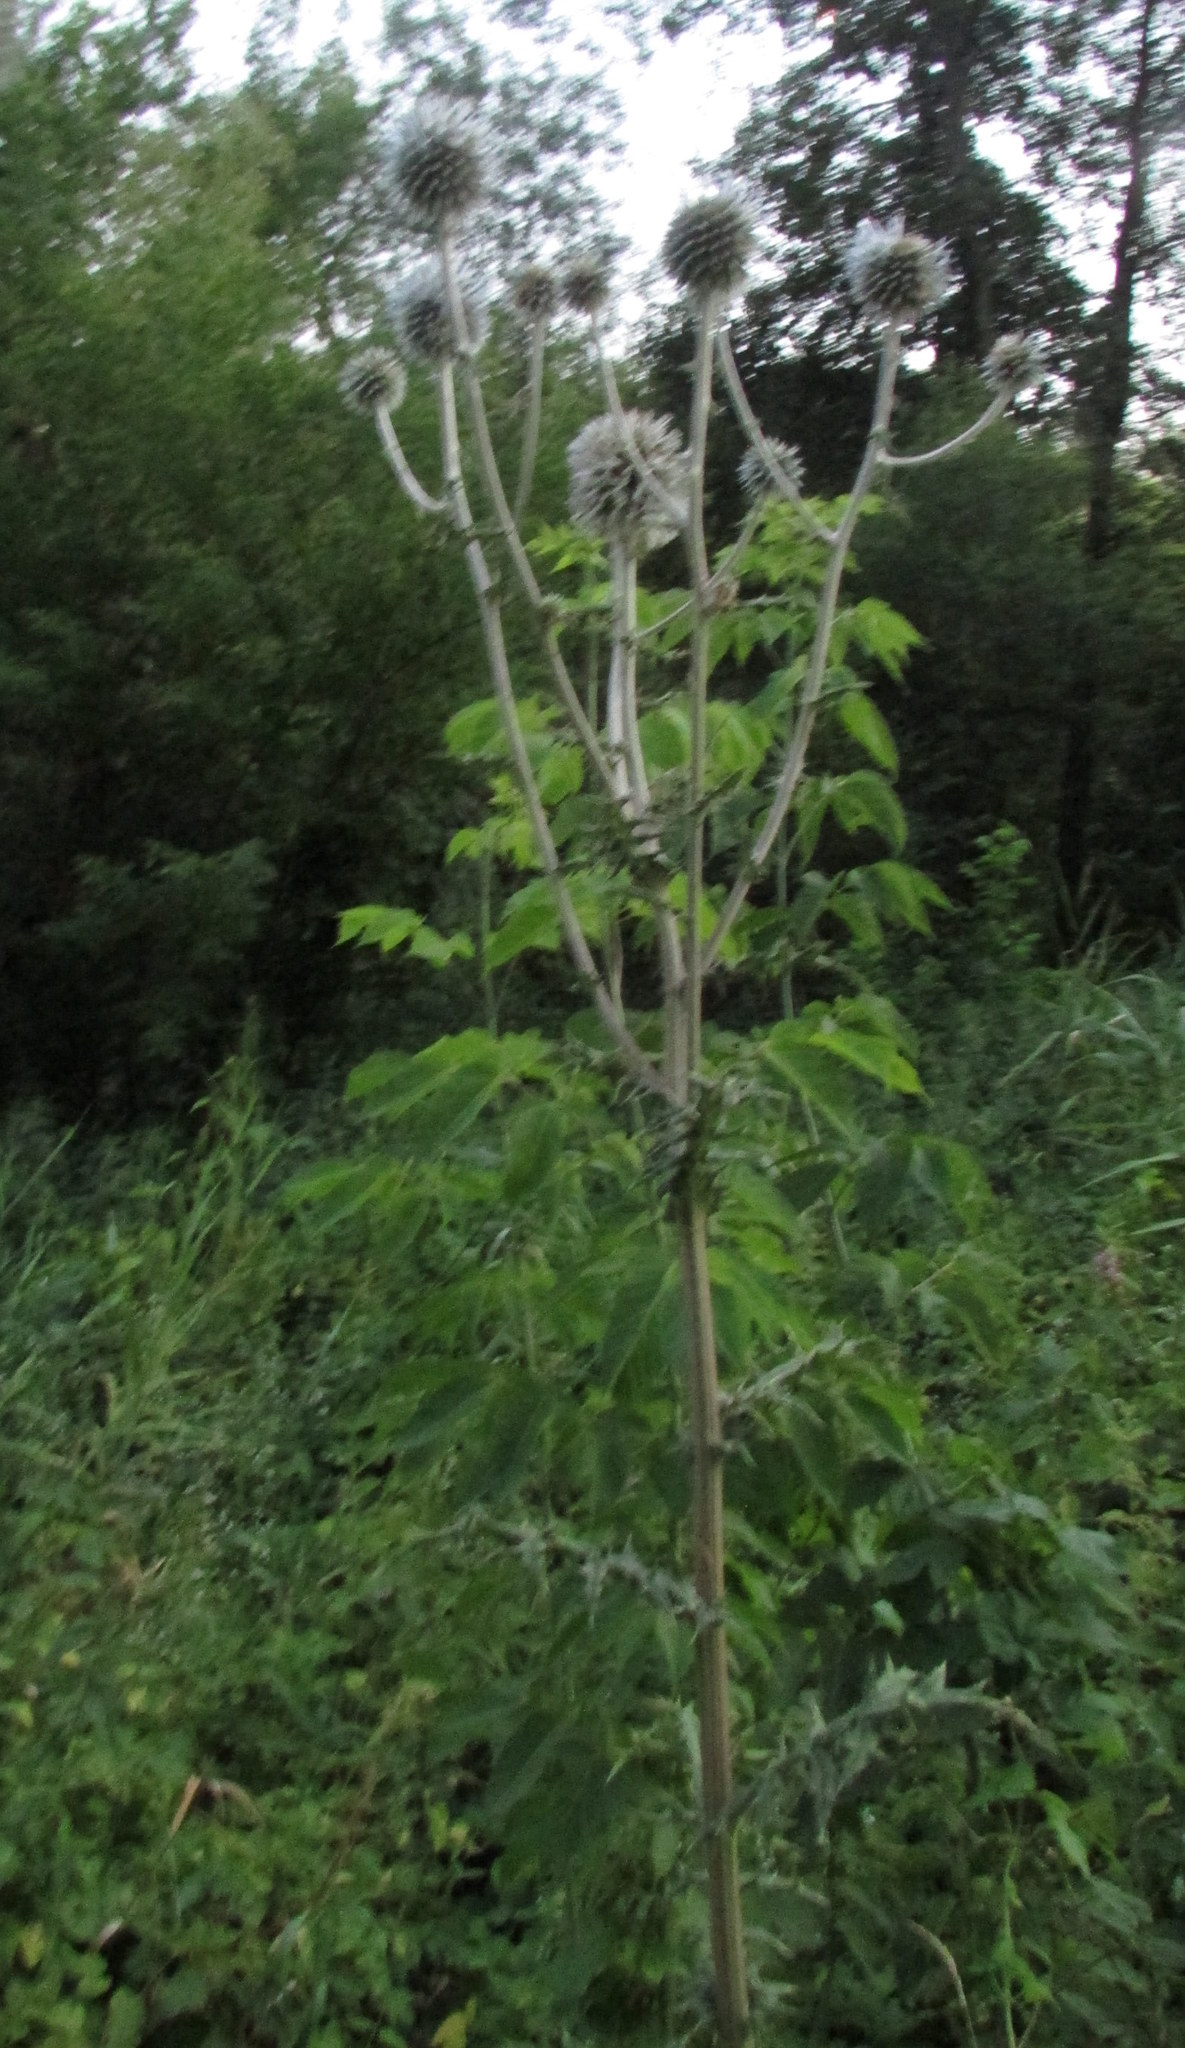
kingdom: Plantae
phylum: Tracheophyta
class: Magnoliopsida
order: Asterales
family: Asteraceae
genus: Echinops
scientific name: Echinops sphaerocephalus
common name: Glandular globe-thistle
